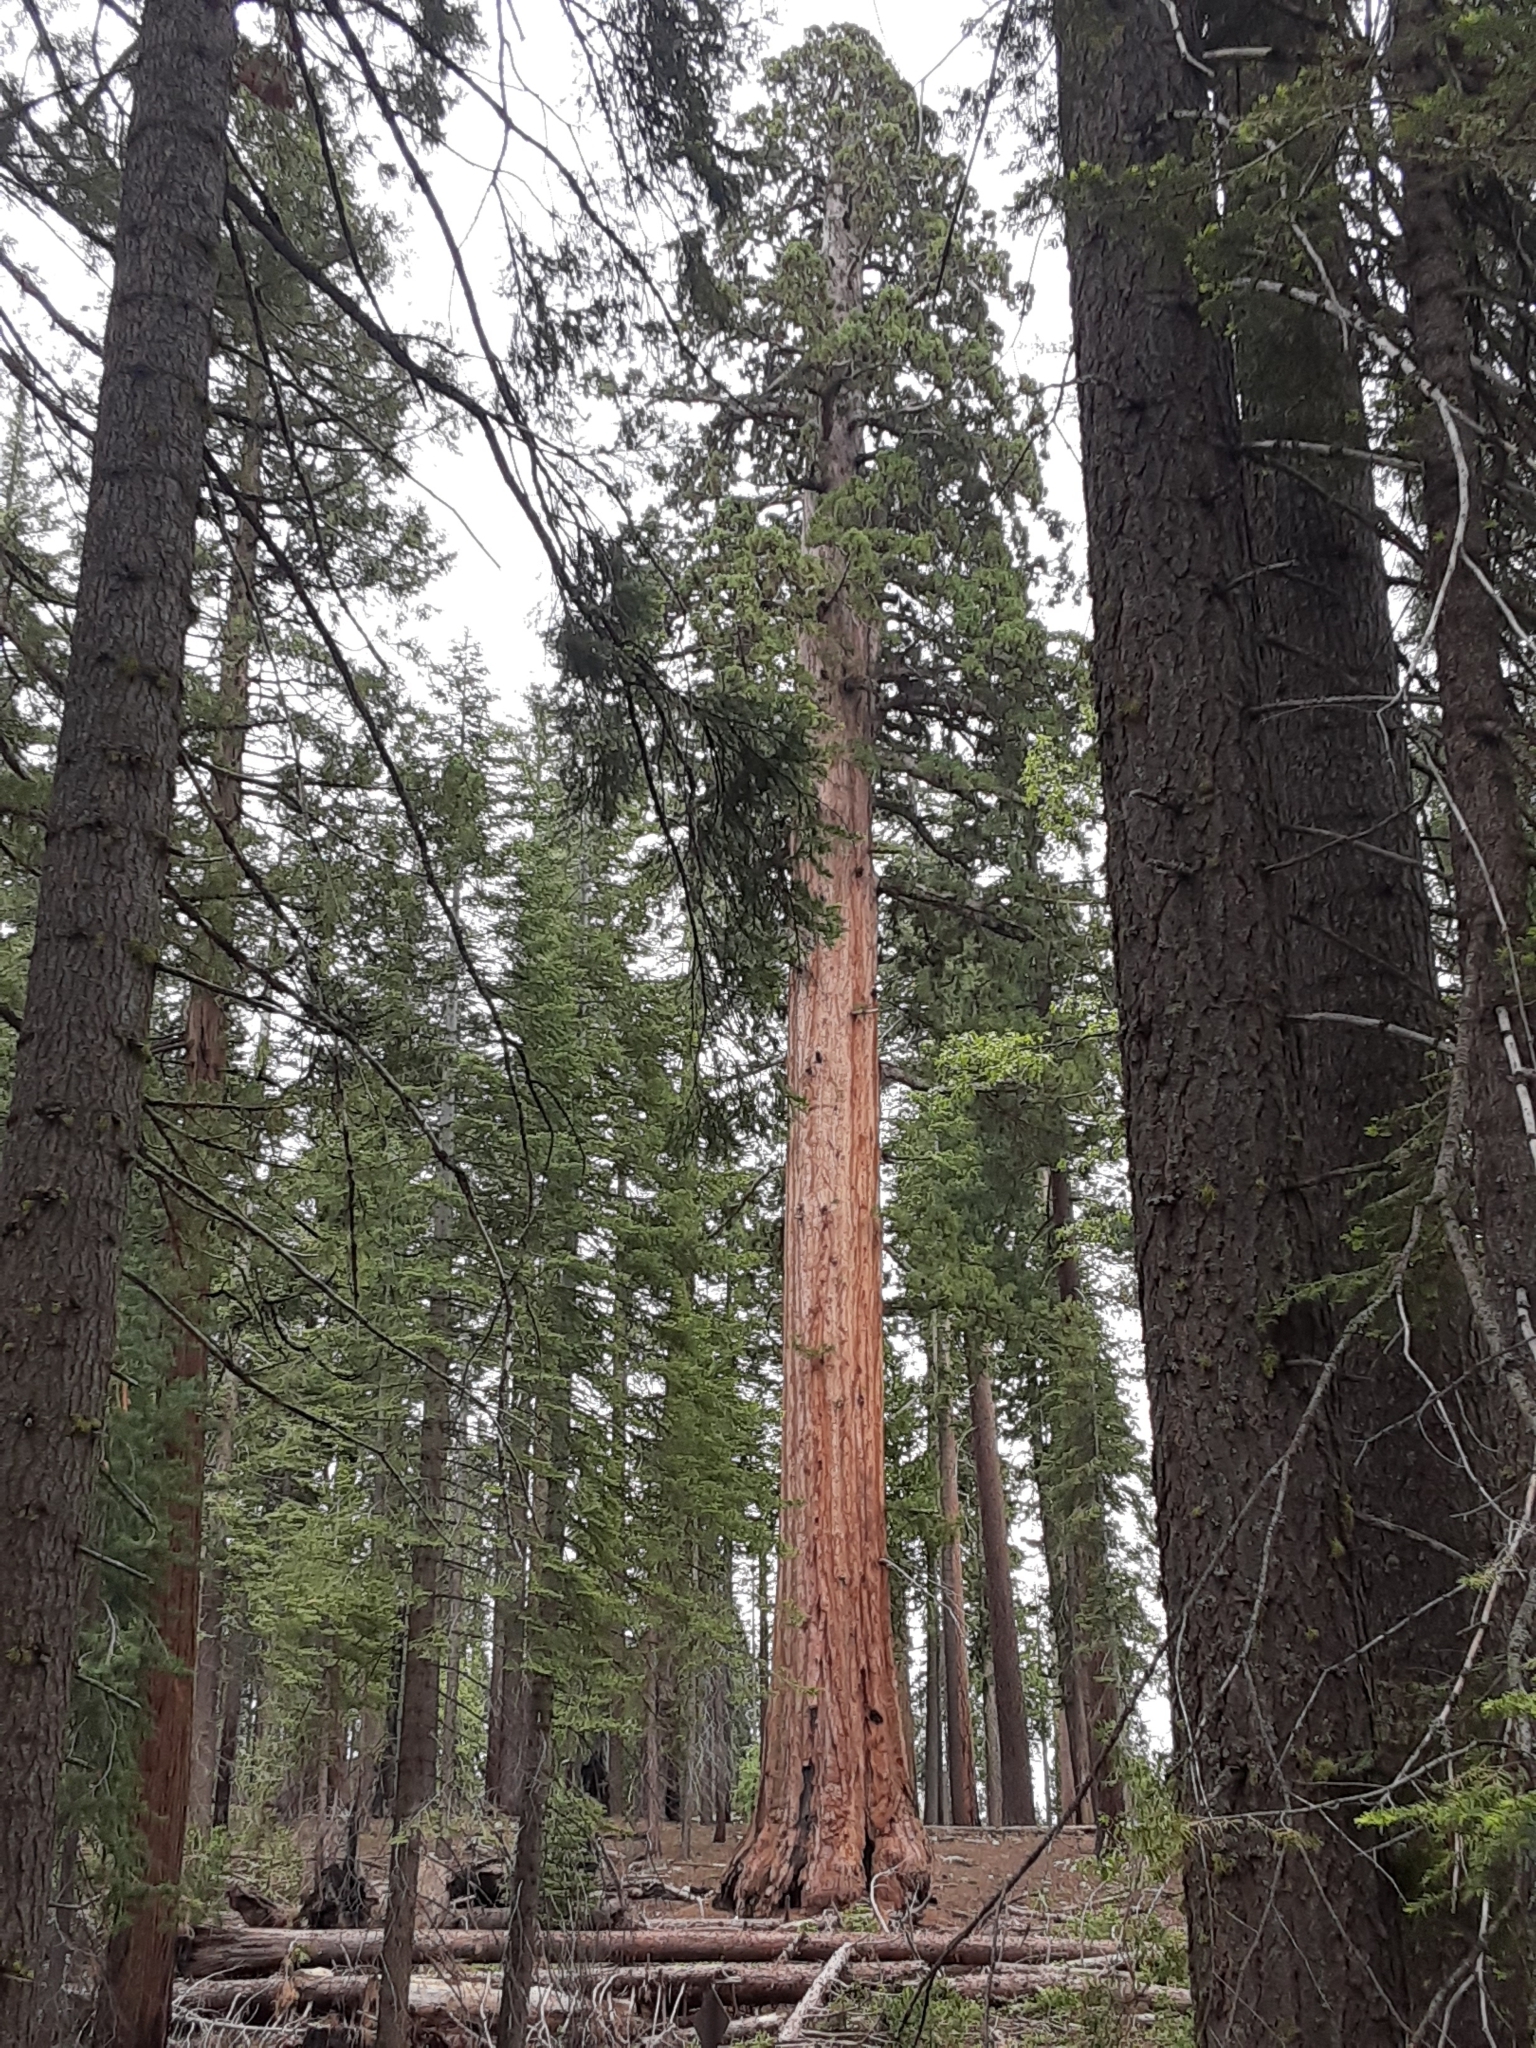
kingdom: Plantae
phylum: Tracheophyta
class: Pinopsida
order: Pinales
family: Cupressaceae
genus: Sequoiadendron
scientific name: Sequoiadendron giganteum
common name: Wellingtonia
